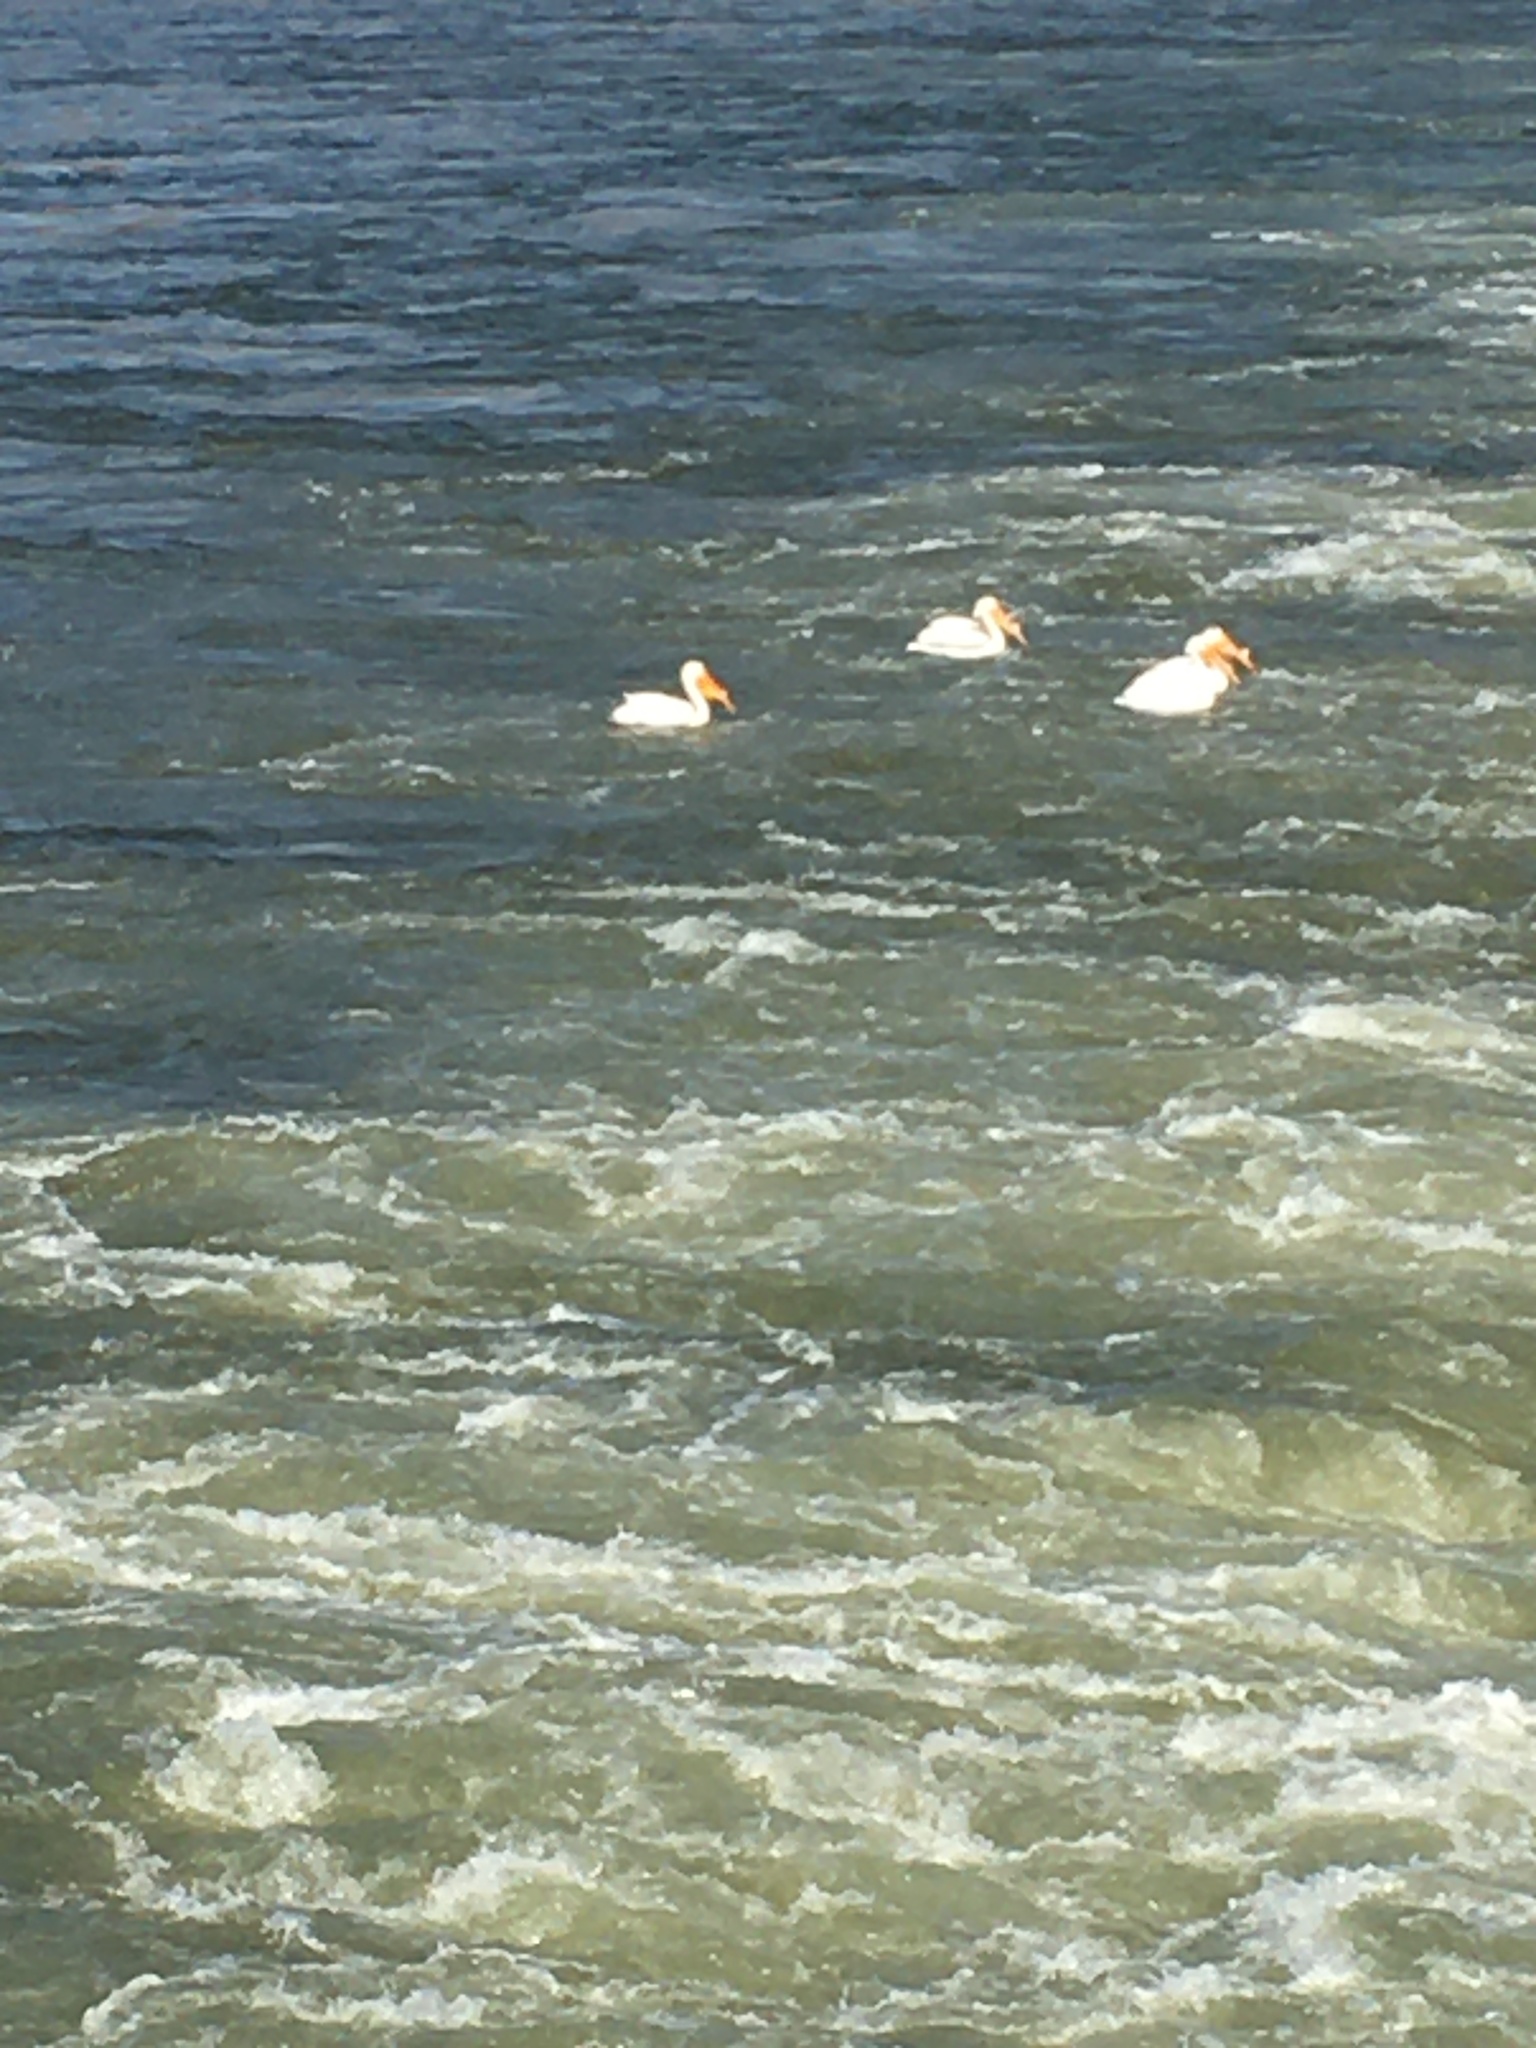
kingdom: Animalia
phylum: Chordata
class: Aves
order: Pelecaniformes
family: Pelecanidae
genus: Pelecanus
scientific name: Pelecanus erythrorhynchos
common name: American white pelican
